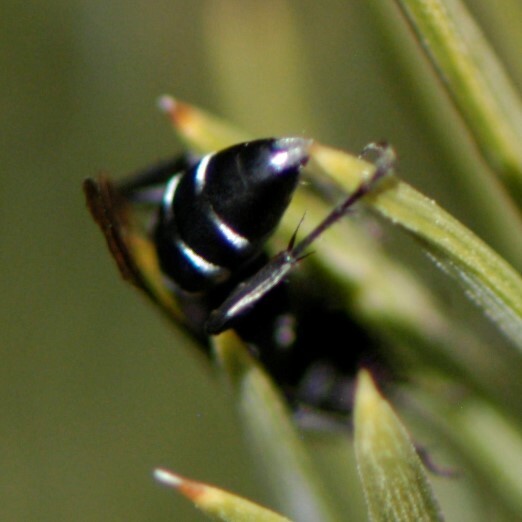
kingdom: Animalia
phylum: Arthropoda
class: Insecta
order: Hymenoptera
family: Crabronidae
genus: Liris
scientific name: Liris
